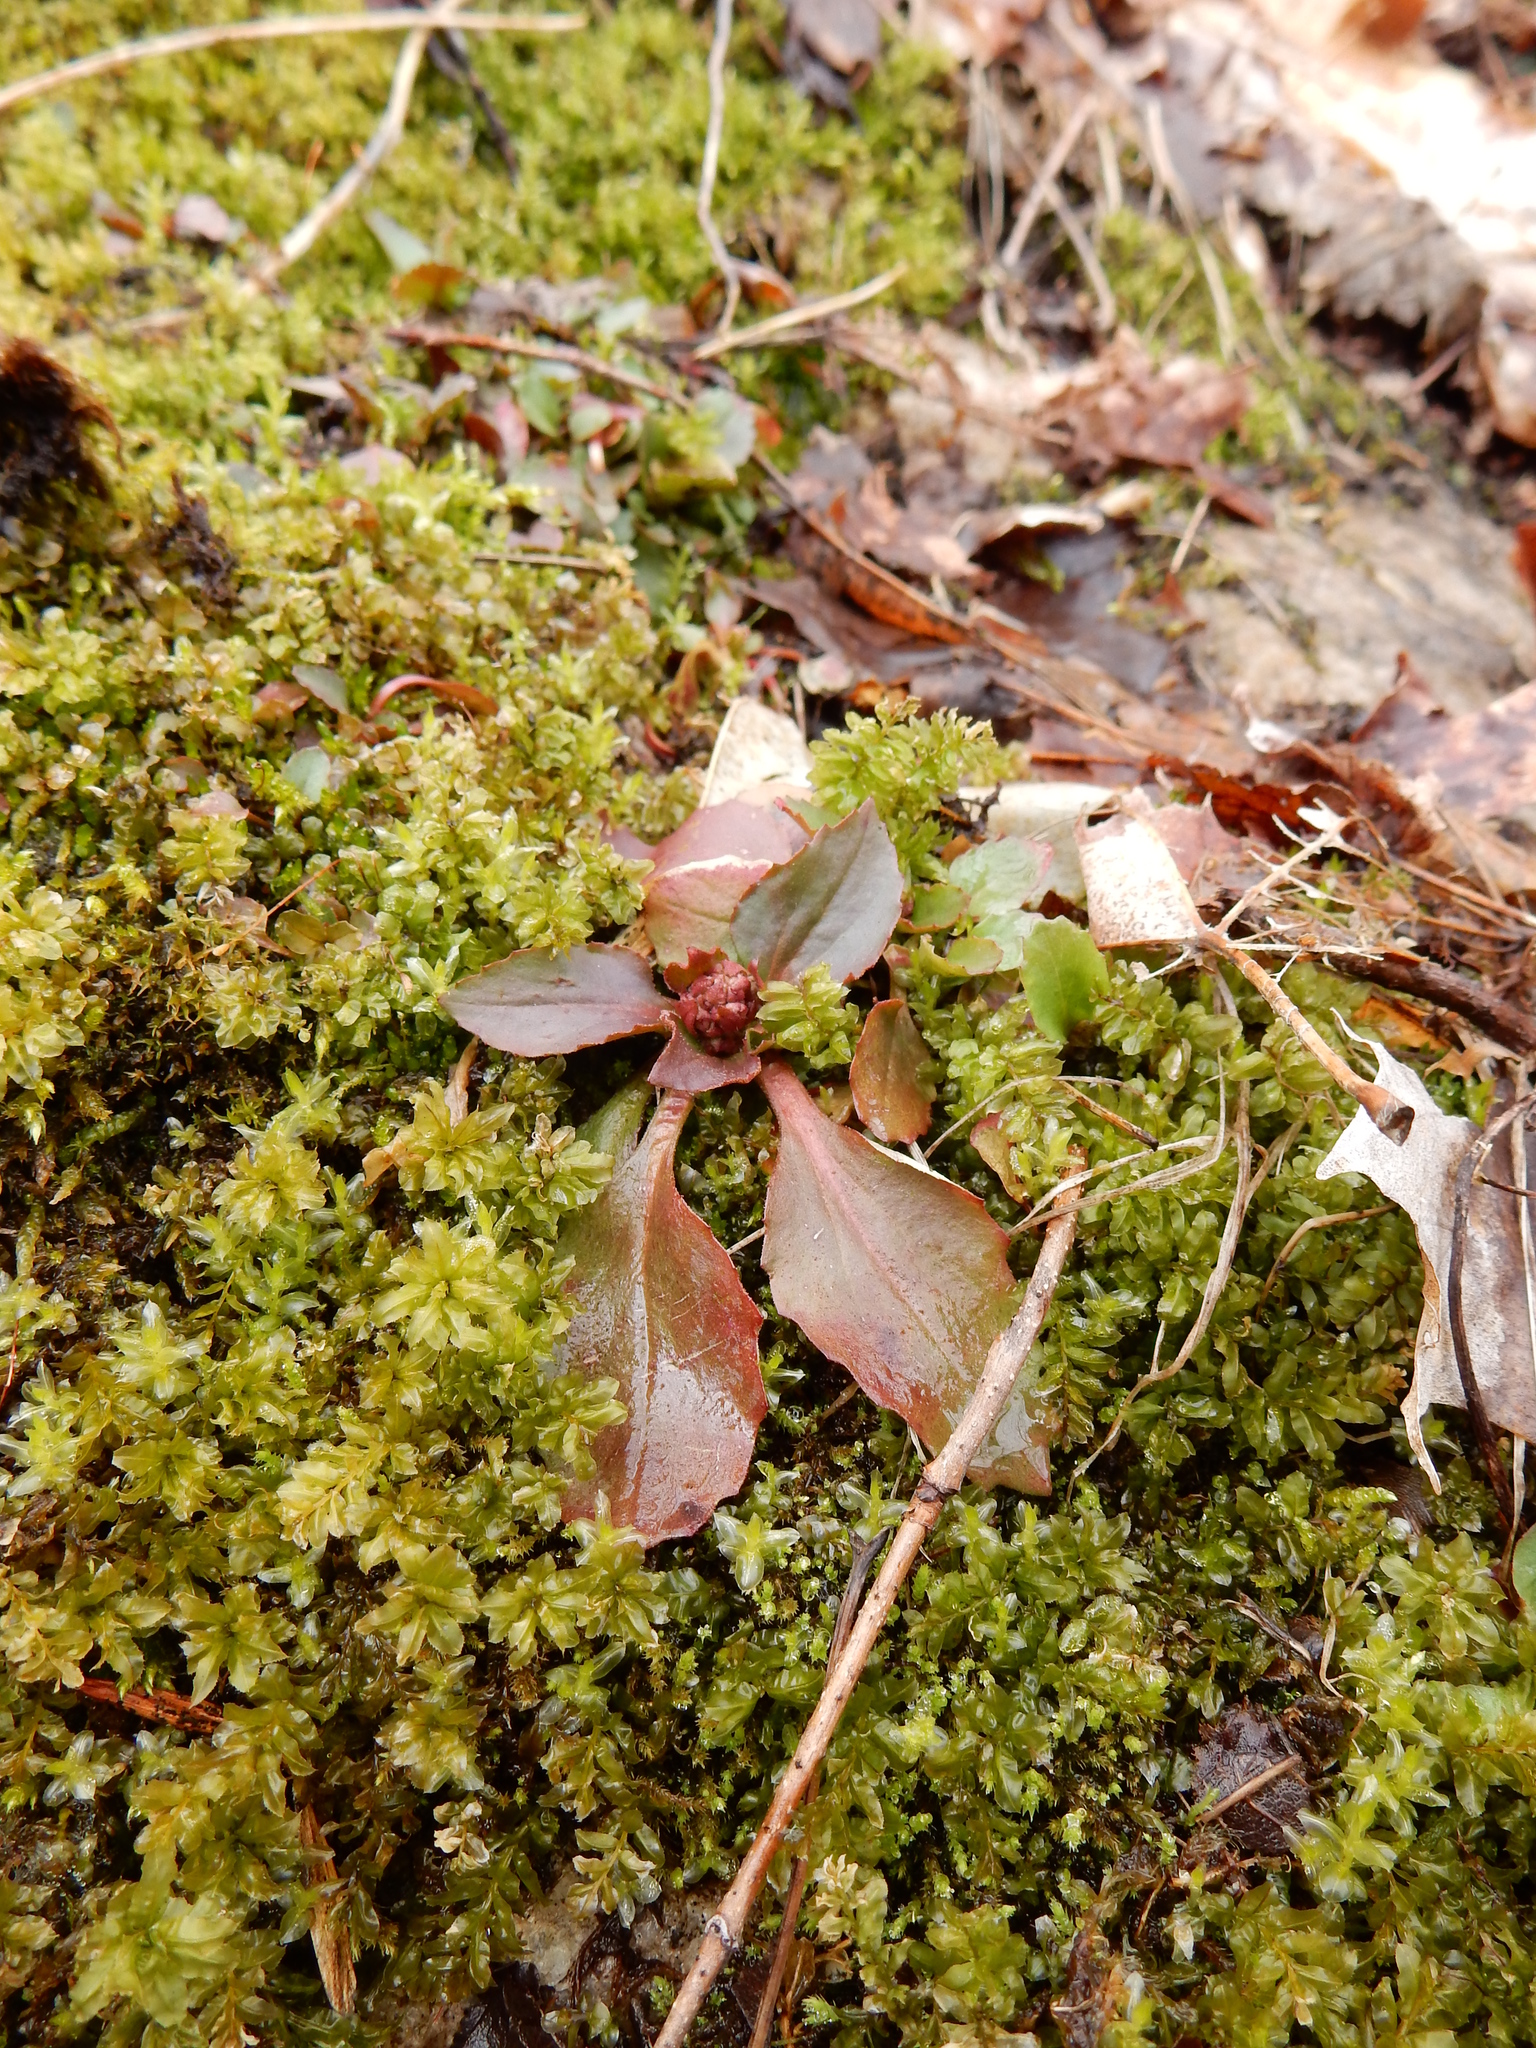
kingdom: Plantae
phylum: Tracheophyta
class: Magnoliopsida
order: Saxifragales
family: Saxifragaceae
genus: Micranthes
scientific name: Micranthes virginiensis
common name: Early saxifrage
